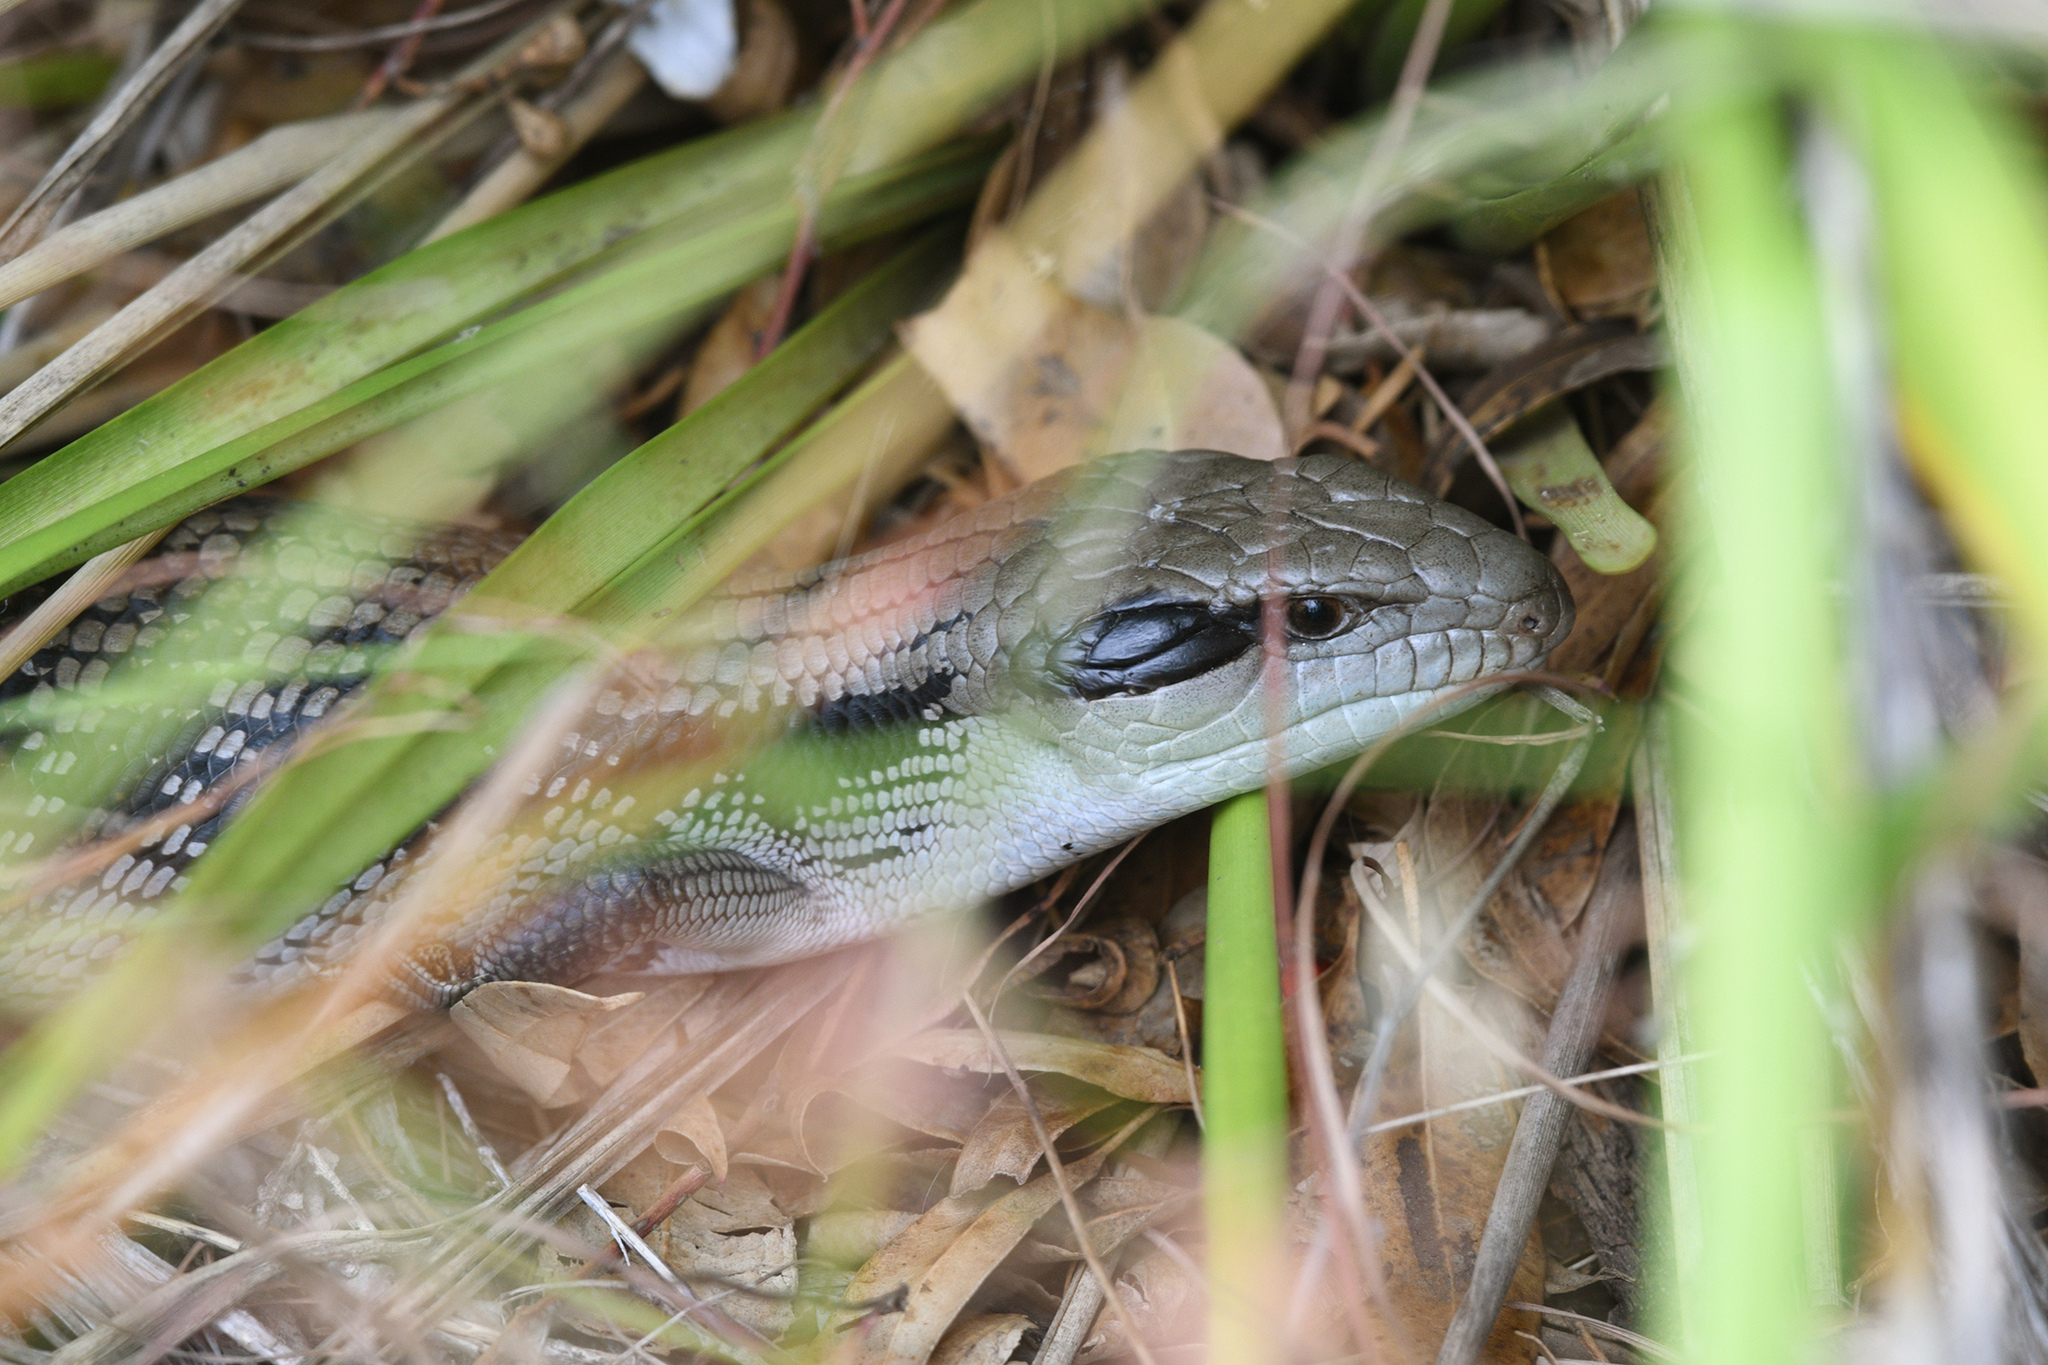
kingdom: Animalia
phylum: Chordata
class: Squamata
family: Scincidae
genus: Tiliqua
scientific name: Tiliqua scincoides
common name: Common bluetongue
